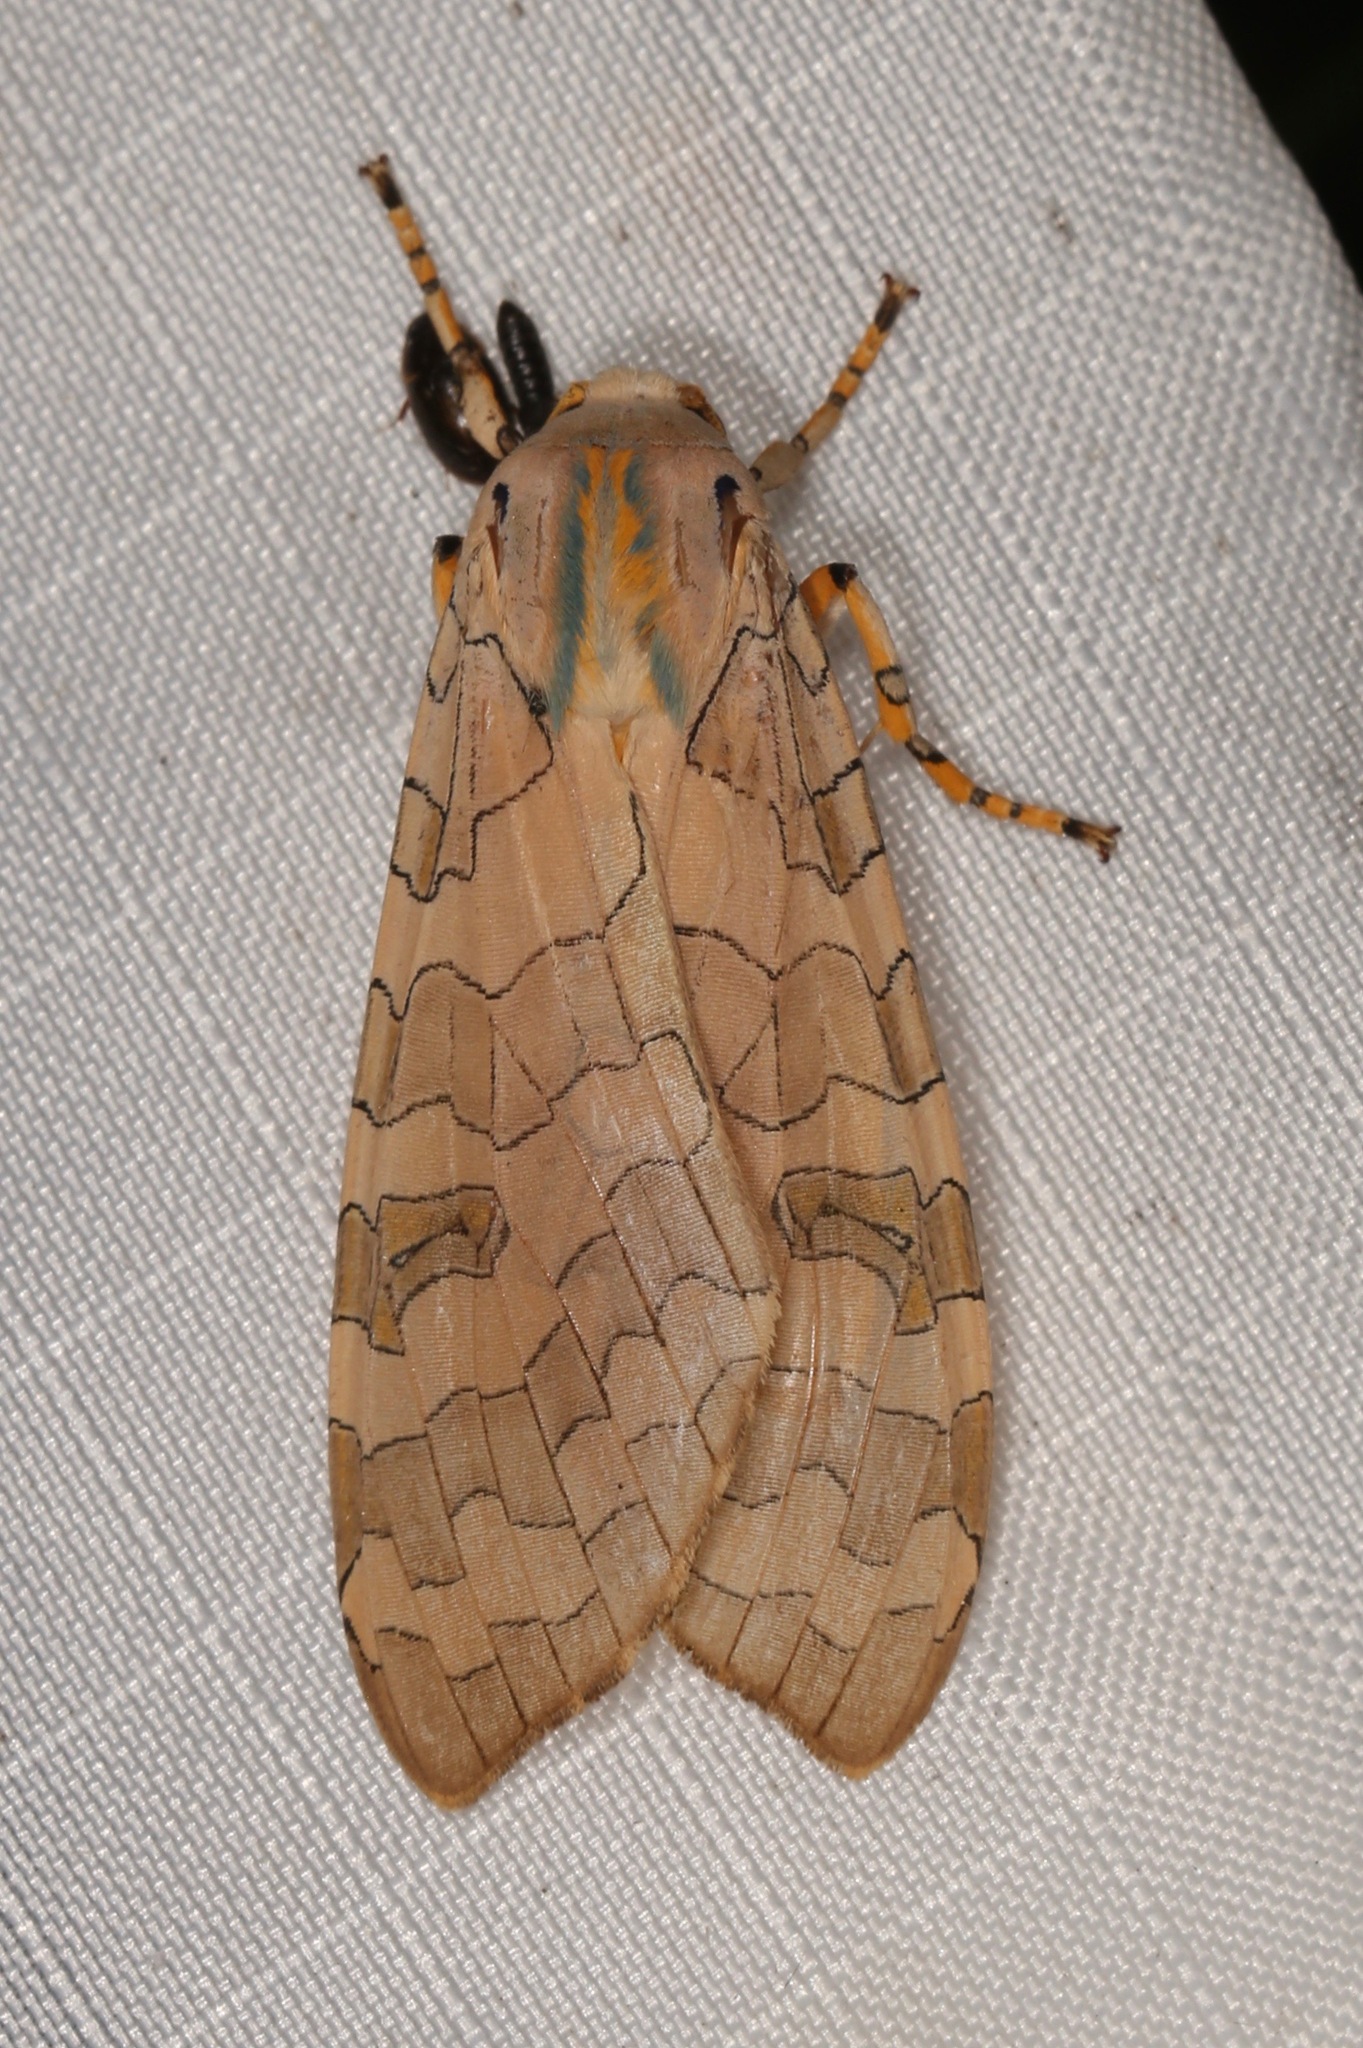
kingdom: Animalia
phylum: Arthropoda
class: Insecta
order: Lepidoptera
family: Erebidae
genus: Halysidota
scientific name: Halysidota
